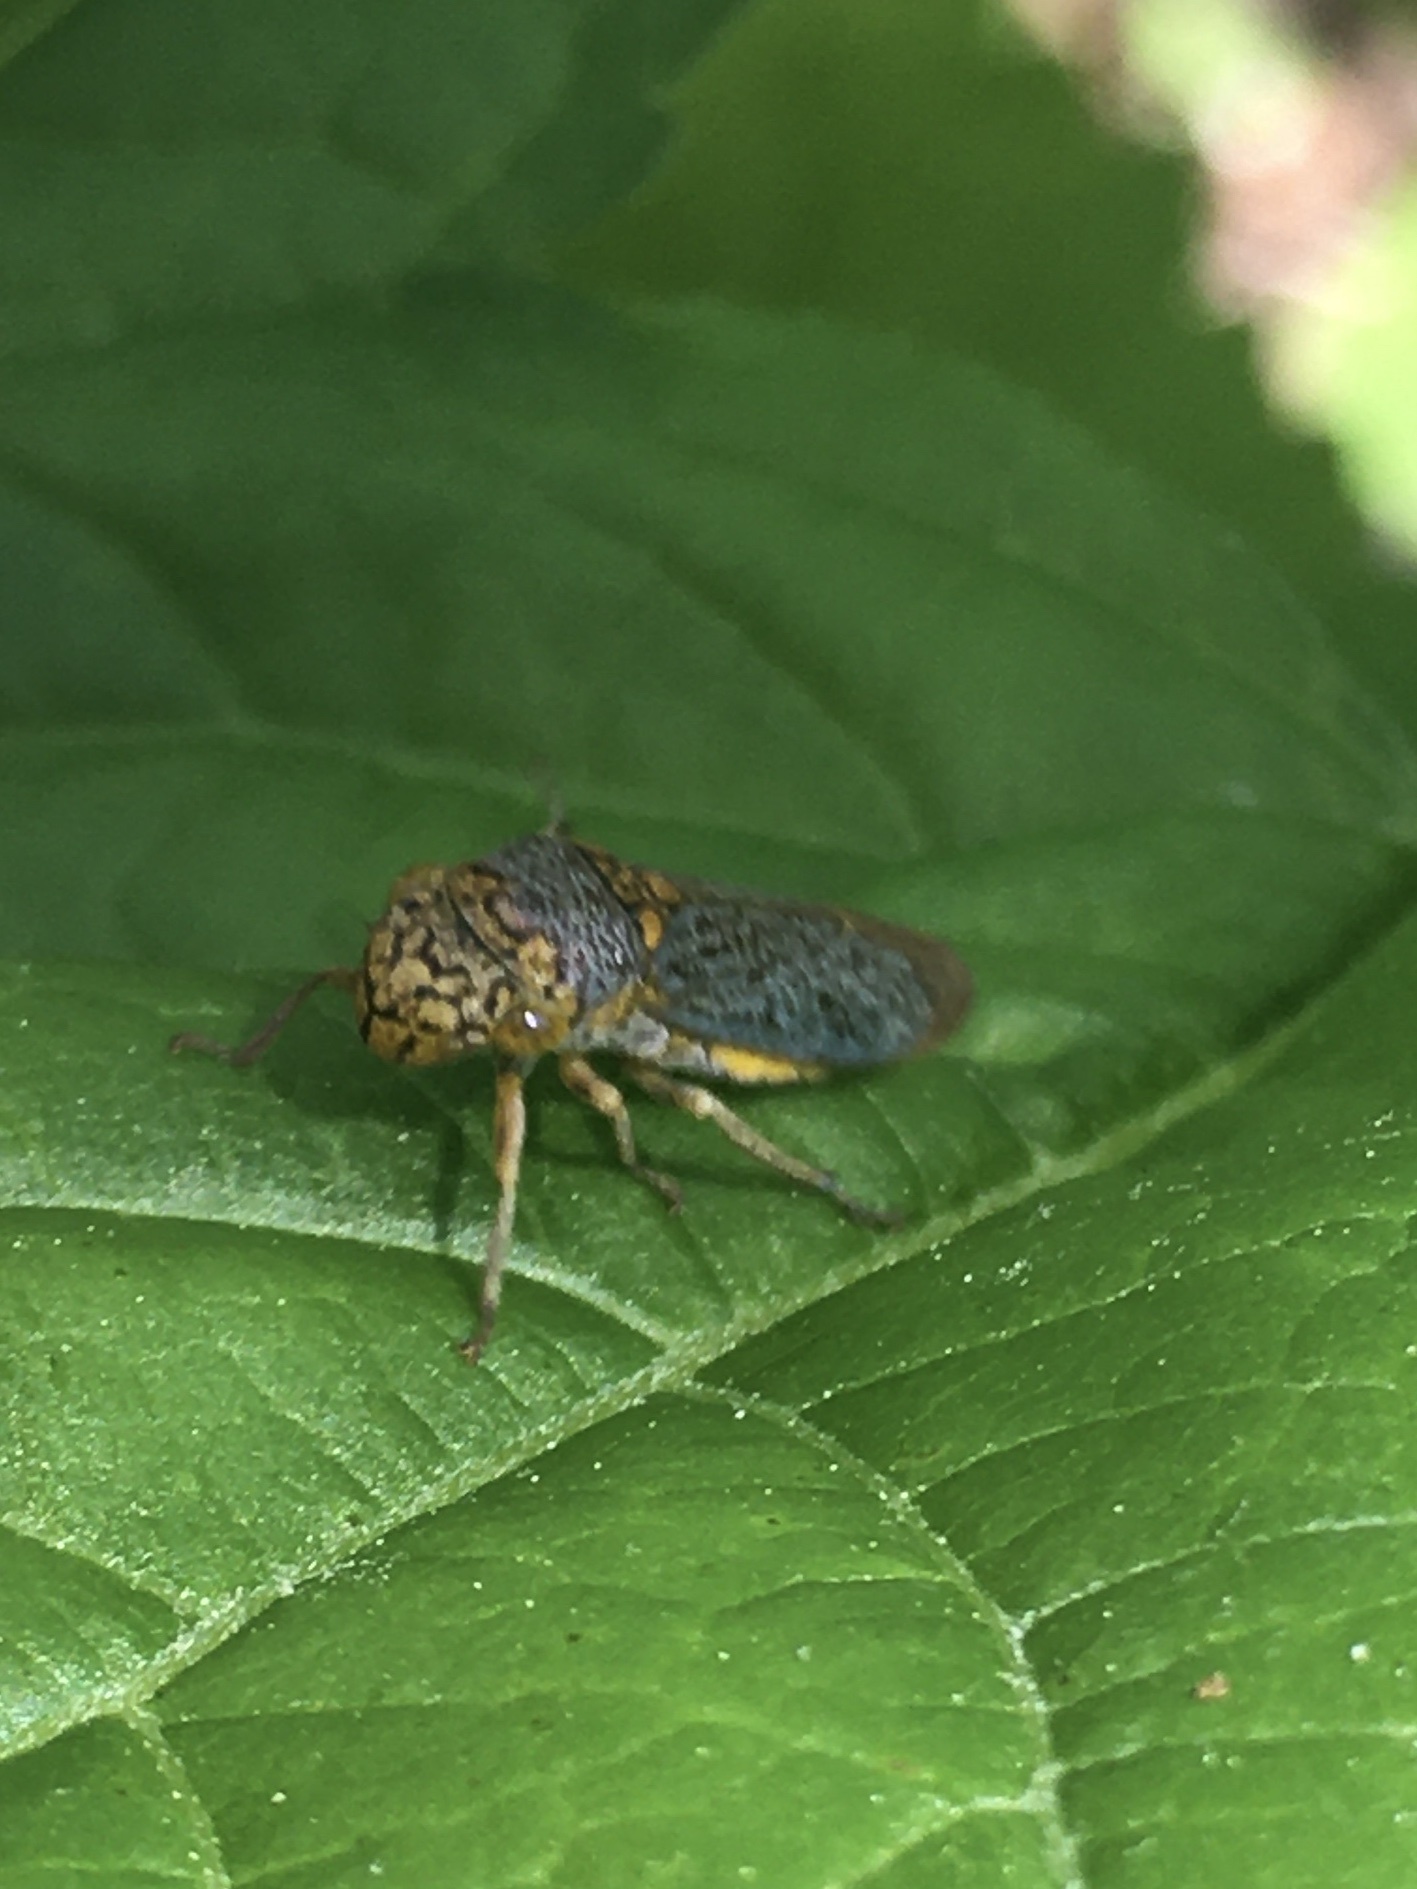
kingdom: Animalia
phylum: Arthropoda
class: Insecta
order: Hemiptera
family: Cicadellidae
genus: Oncometopia
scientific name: Oncometopia orbona
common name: Broad-headed sharpshooter
